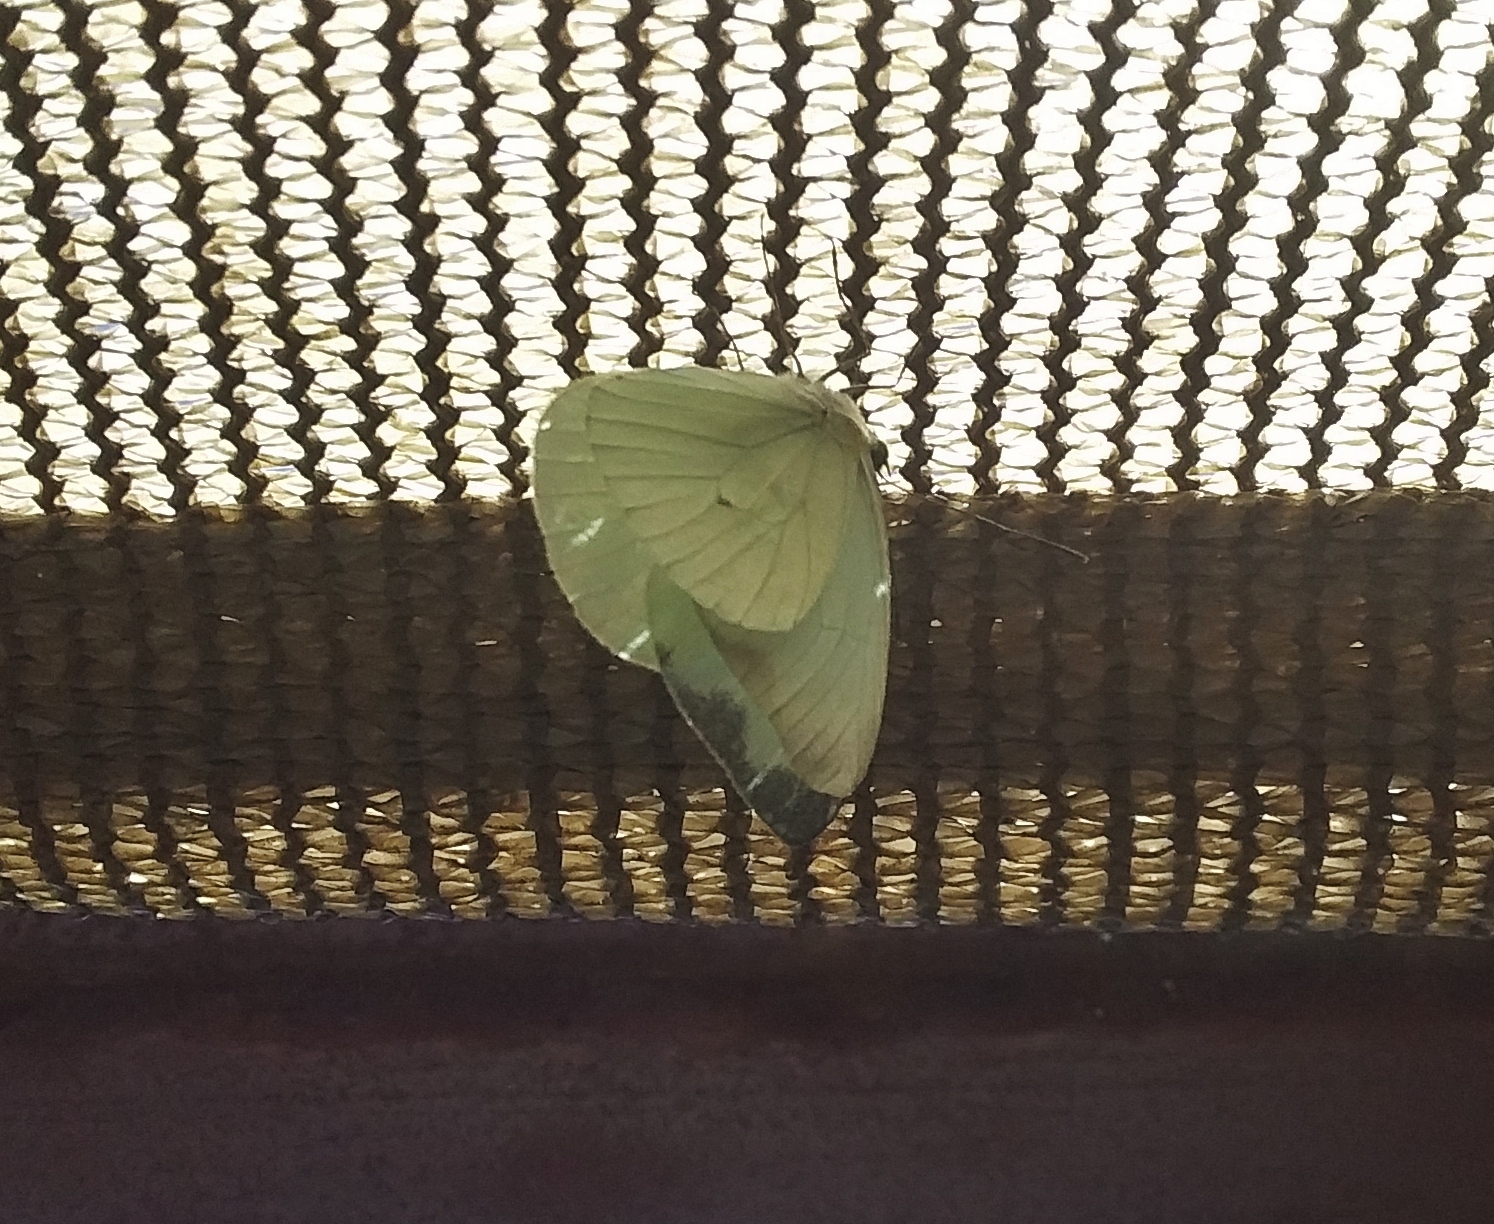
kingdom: Animalia
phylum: Arthropoda
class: Insecta
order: Lepidoptera
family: Pieridae
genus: Leptophobia
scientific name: Leptophobia aripa
